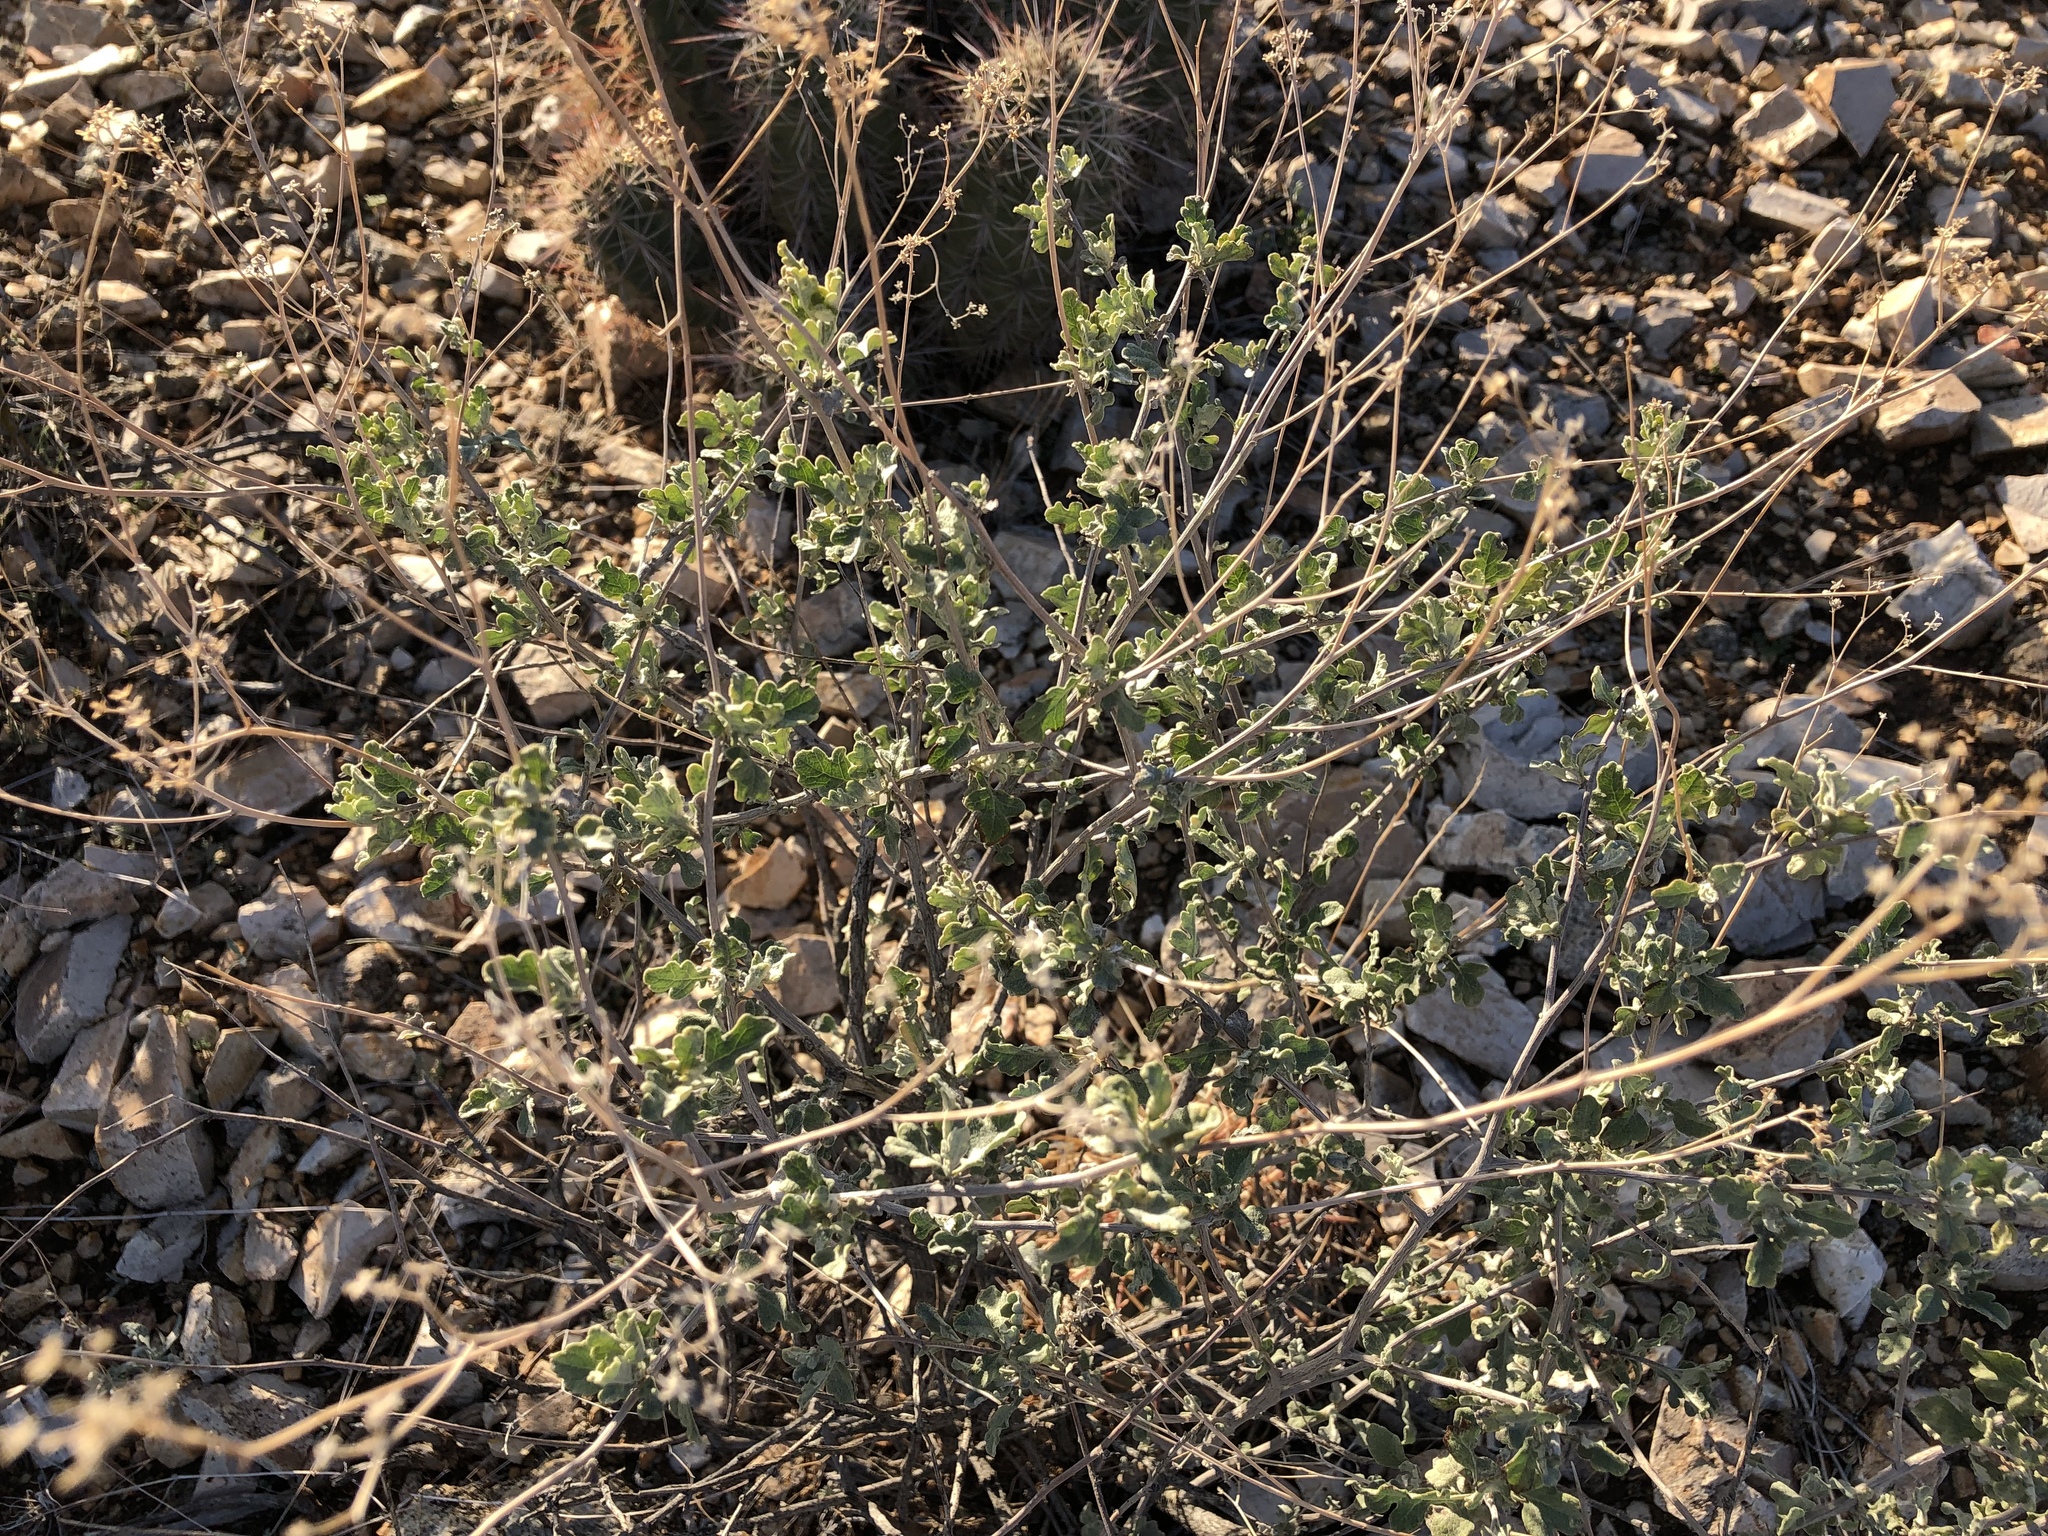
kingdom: Plantae
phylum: Tracheophyta
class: Magnoliopsida
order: Asterales
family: Asteraceae
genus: Parthenium
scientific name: Parthenium incanum
